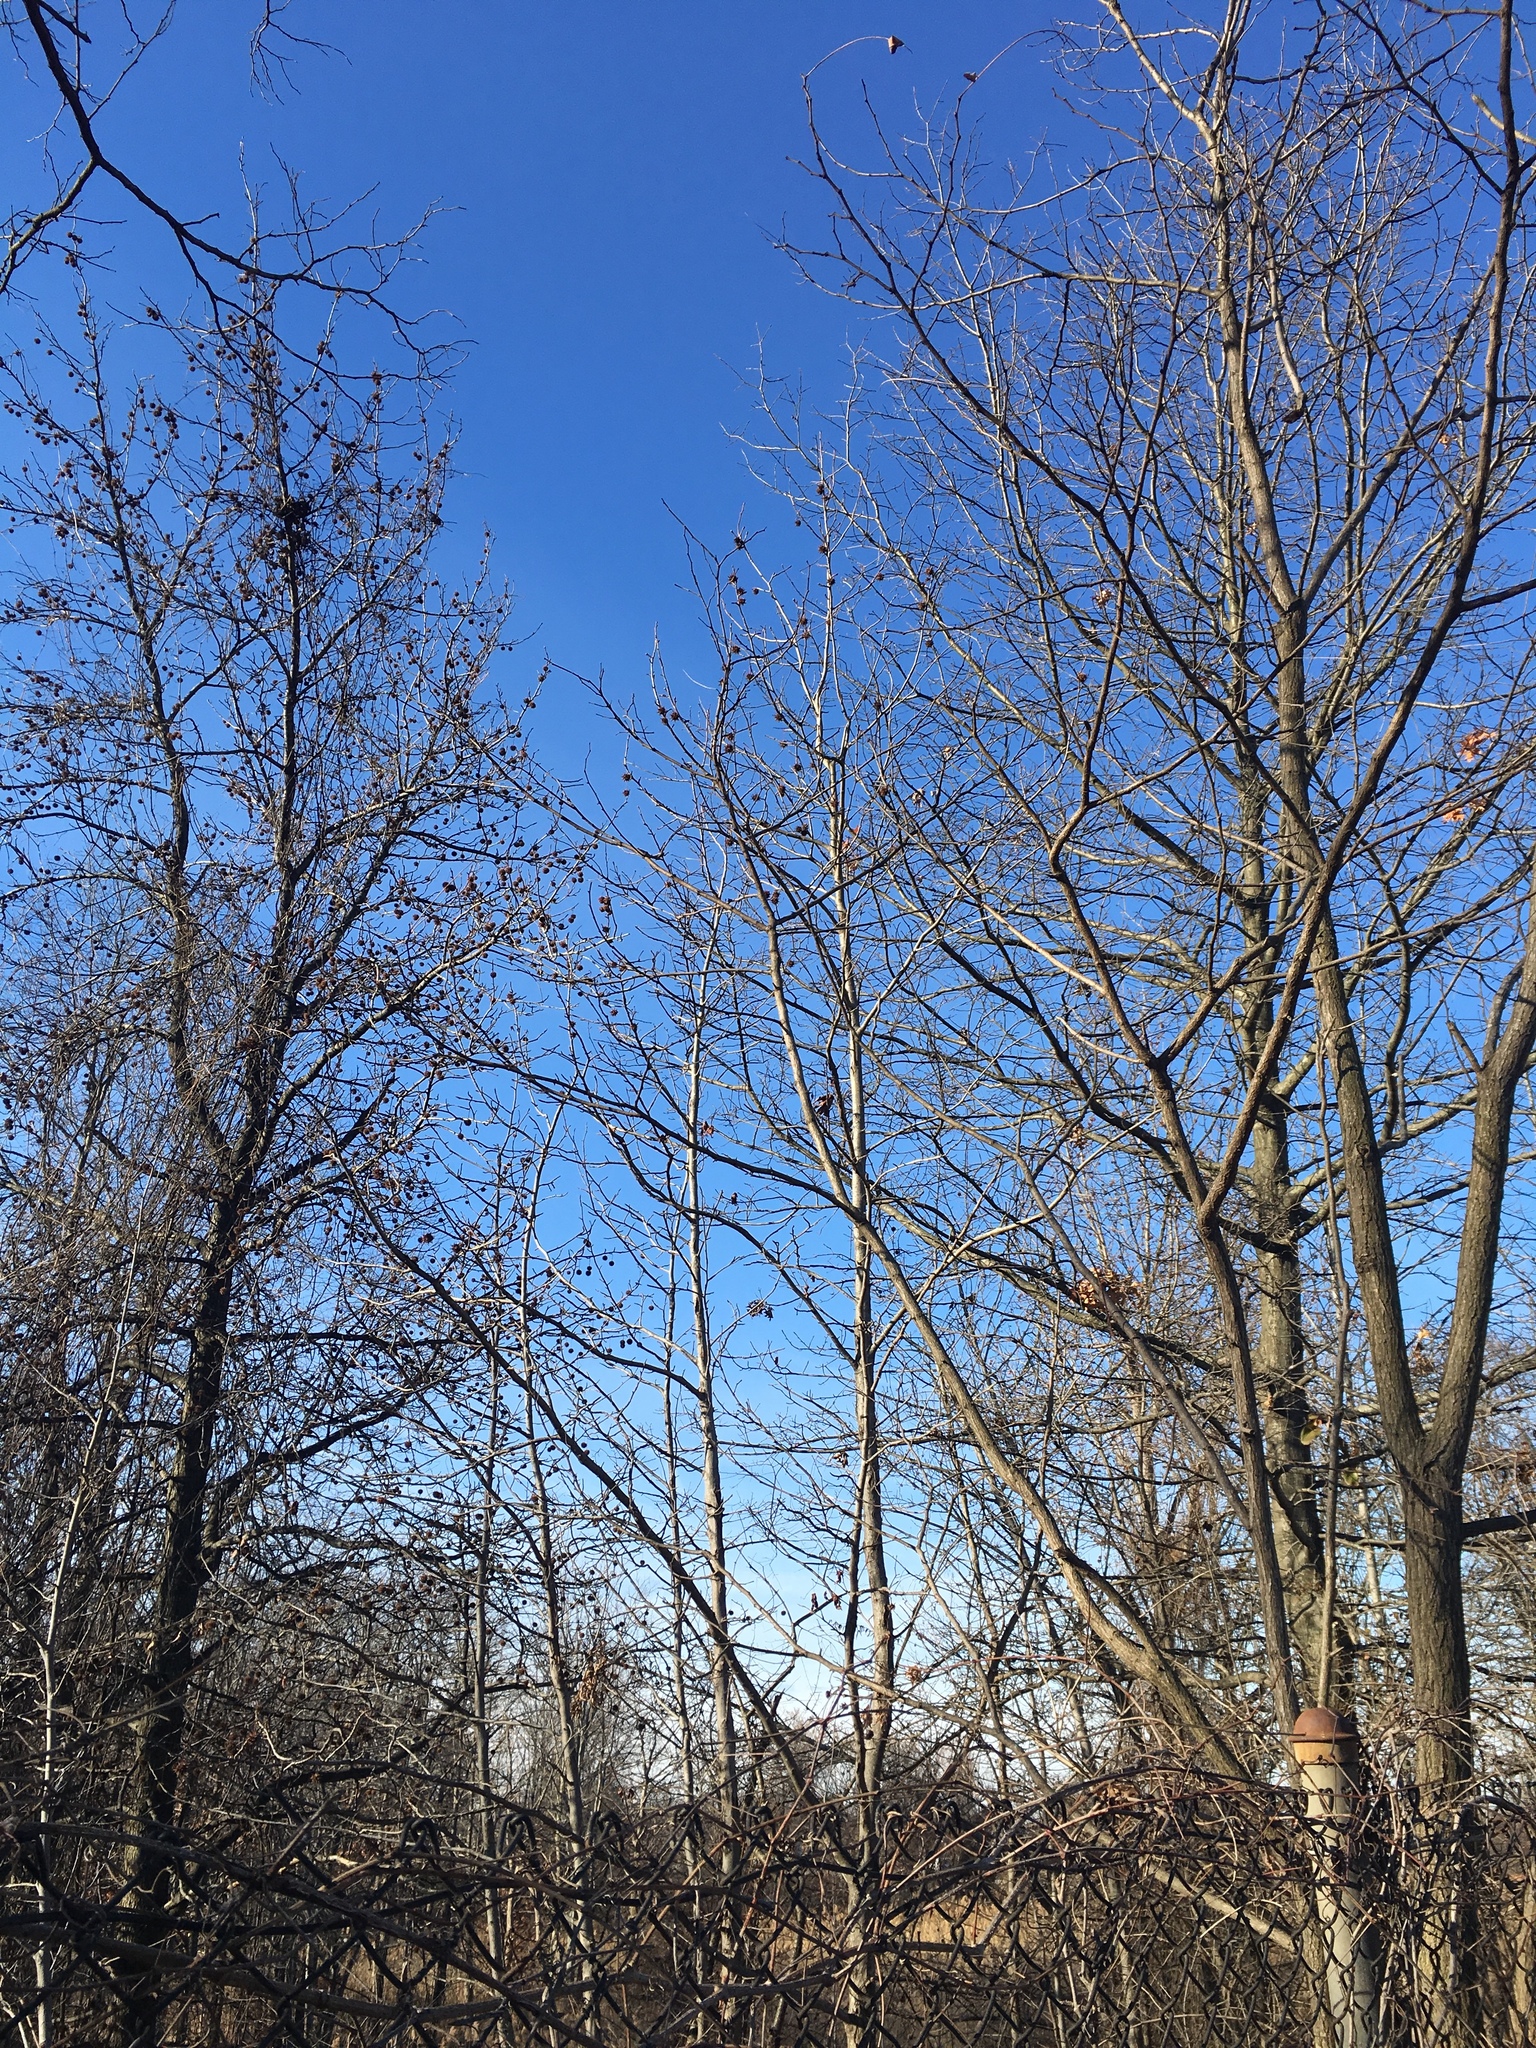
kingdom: Plantae
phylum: Tracheophyta
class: Magnoliopsida
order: Saxifragales
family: Altingiaceae
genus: Liquidambar
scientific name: Liquidambar styraciflua
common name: Sweet gum
